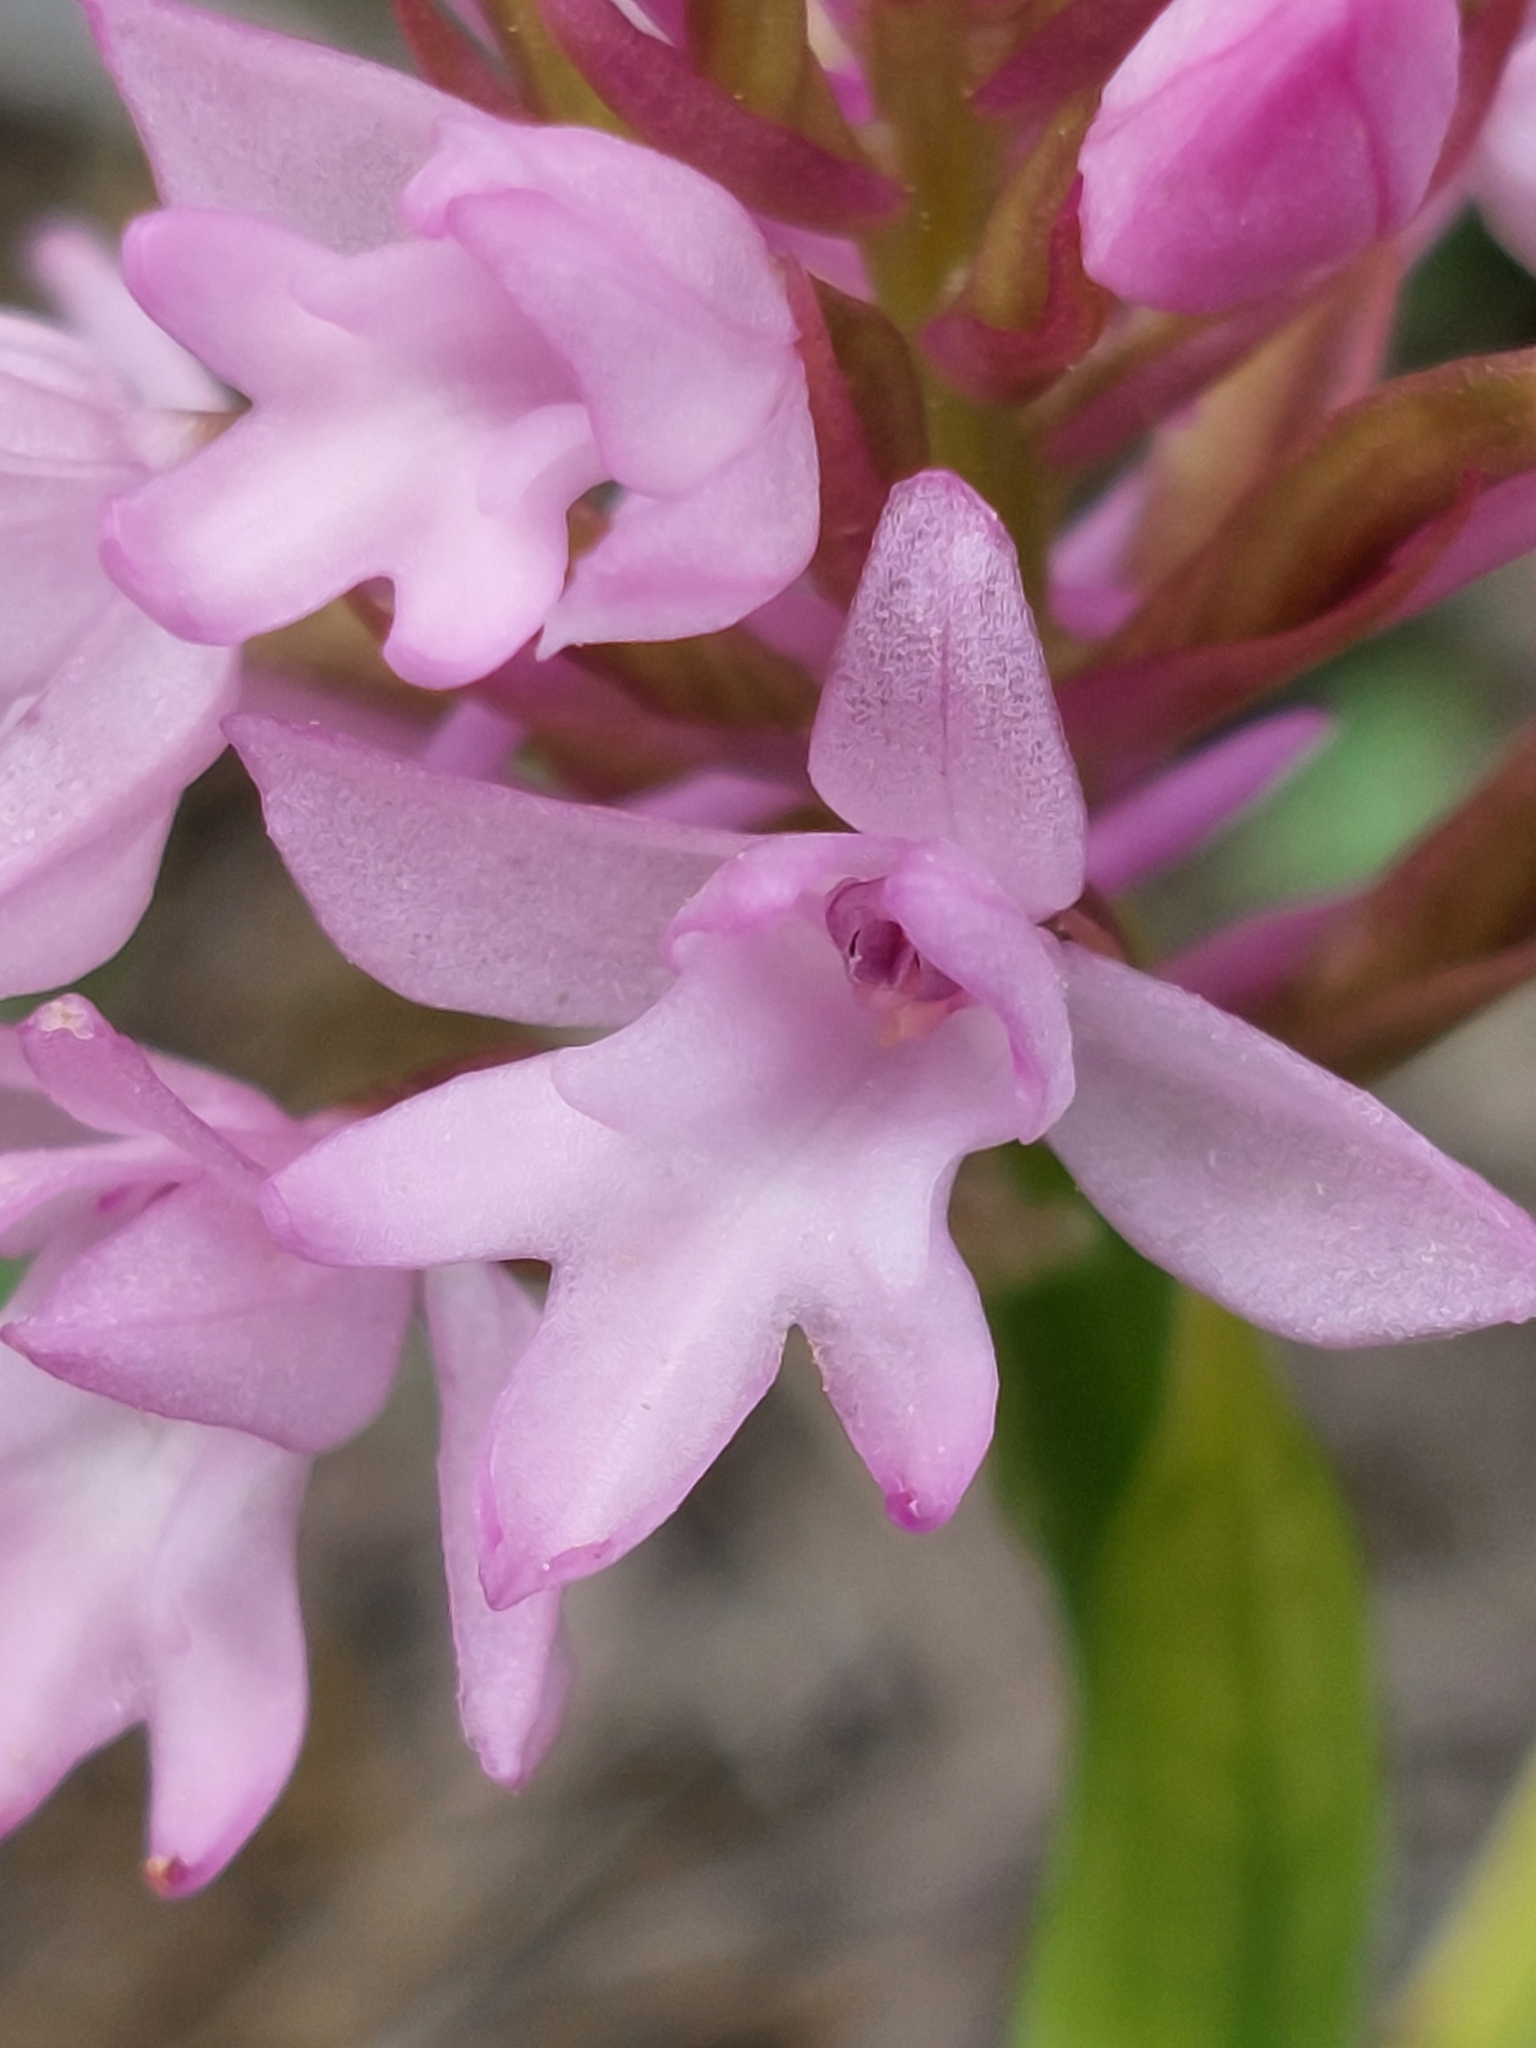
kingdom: Plantae
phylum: Tracheophyta
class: Liliopsida
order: Asparagales
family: Orchidaceae
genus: Anacamptis
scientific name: Anacamptis pyramidalis
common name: Pyramidal orchid
